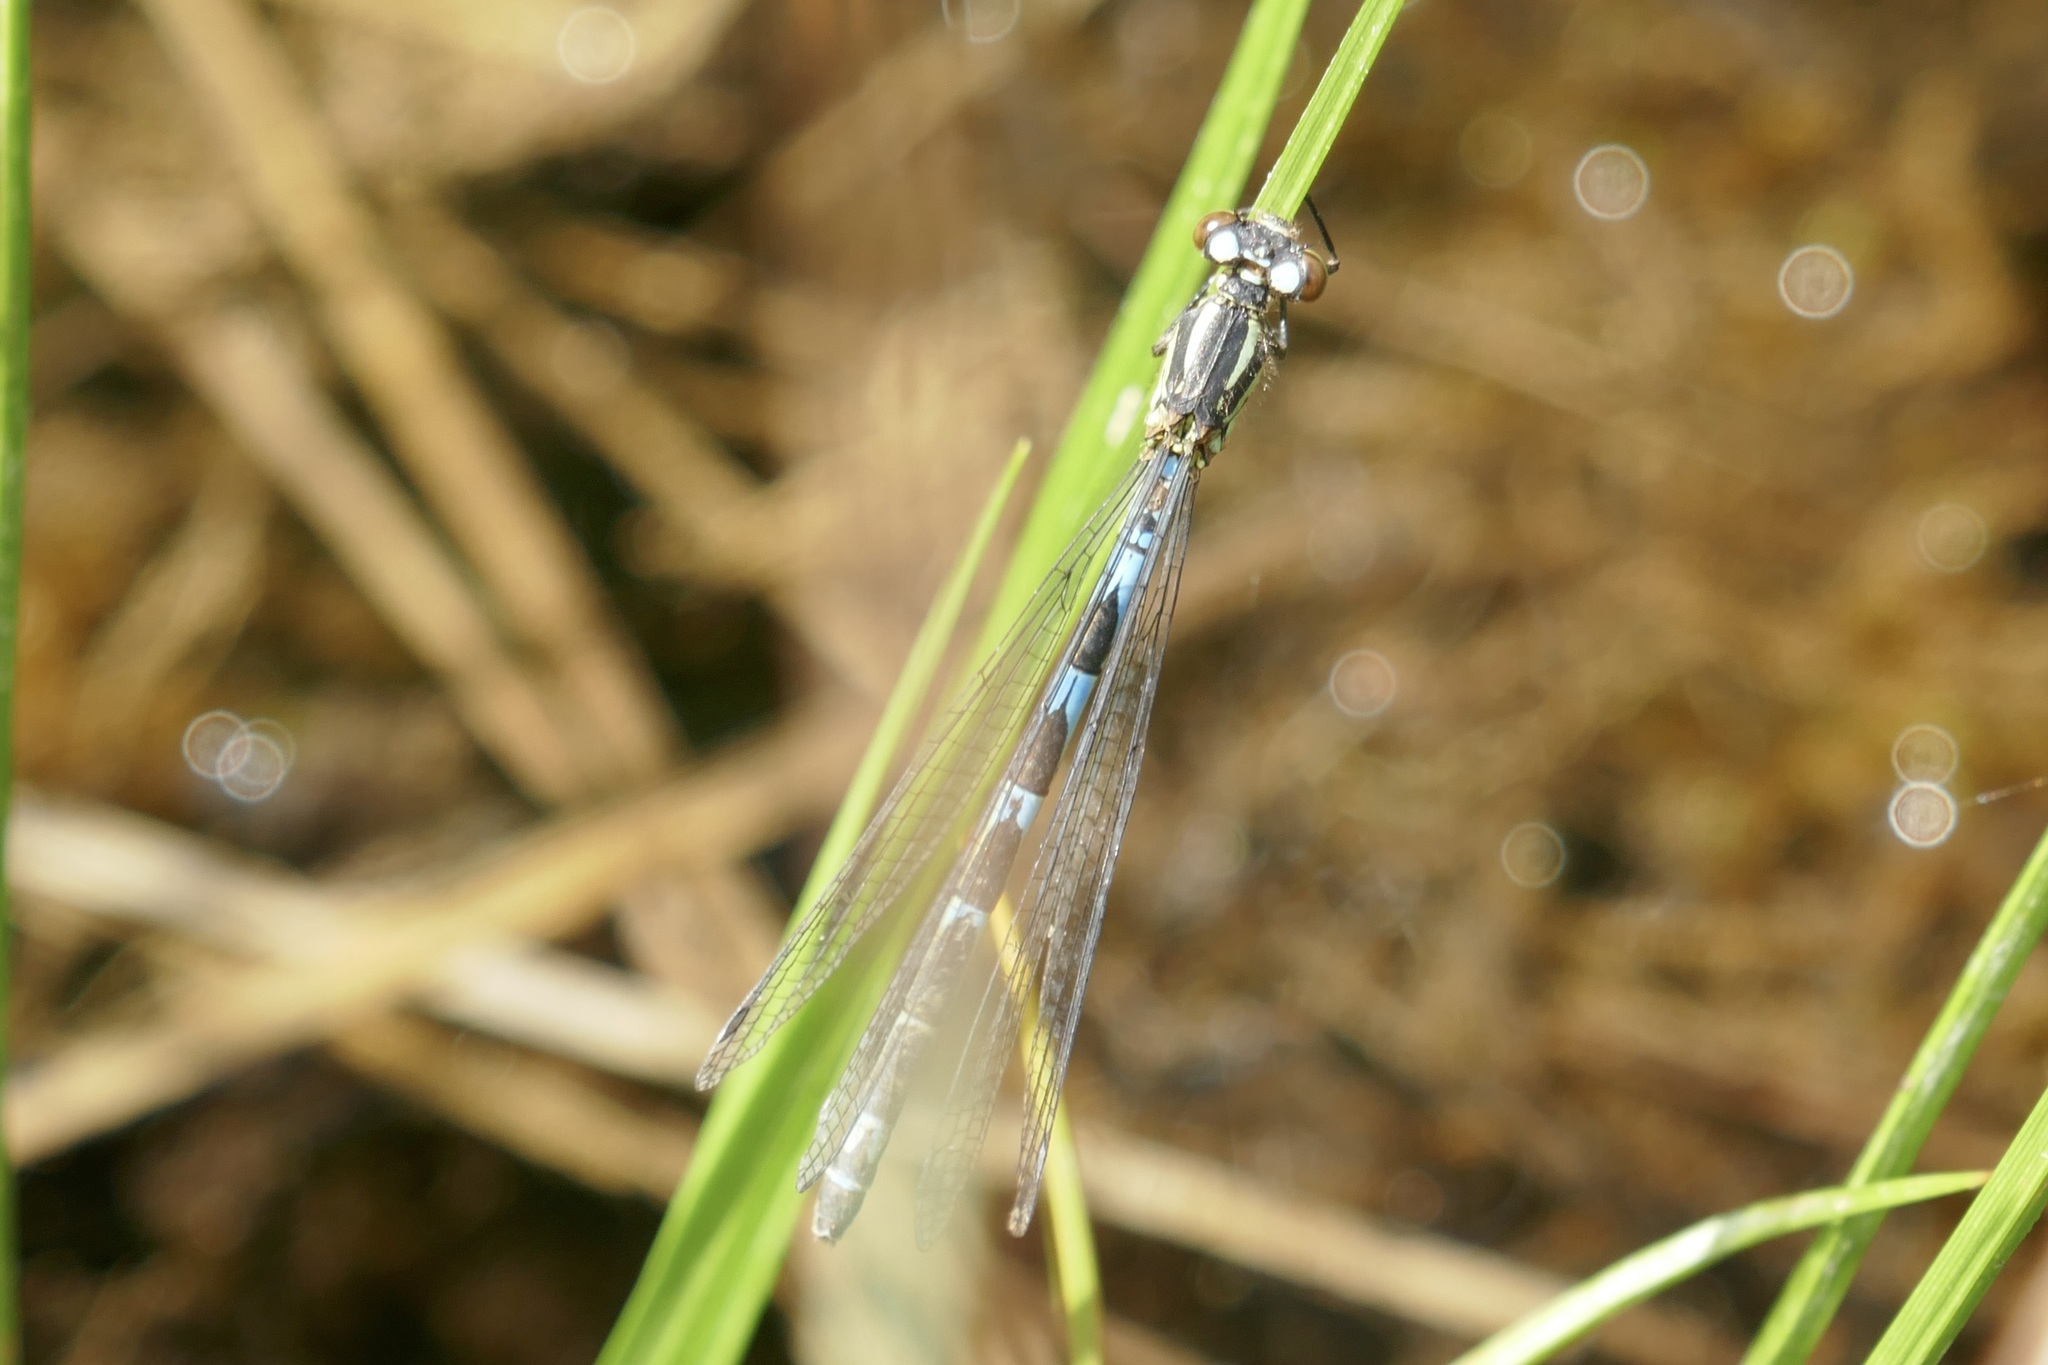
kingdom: Animalia
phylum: Arthropoda
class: Insecta
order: Odonata
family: Coenagrionidae
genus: Coenagrion
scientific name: Coenagrion hylas
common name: Frey's damselfly
